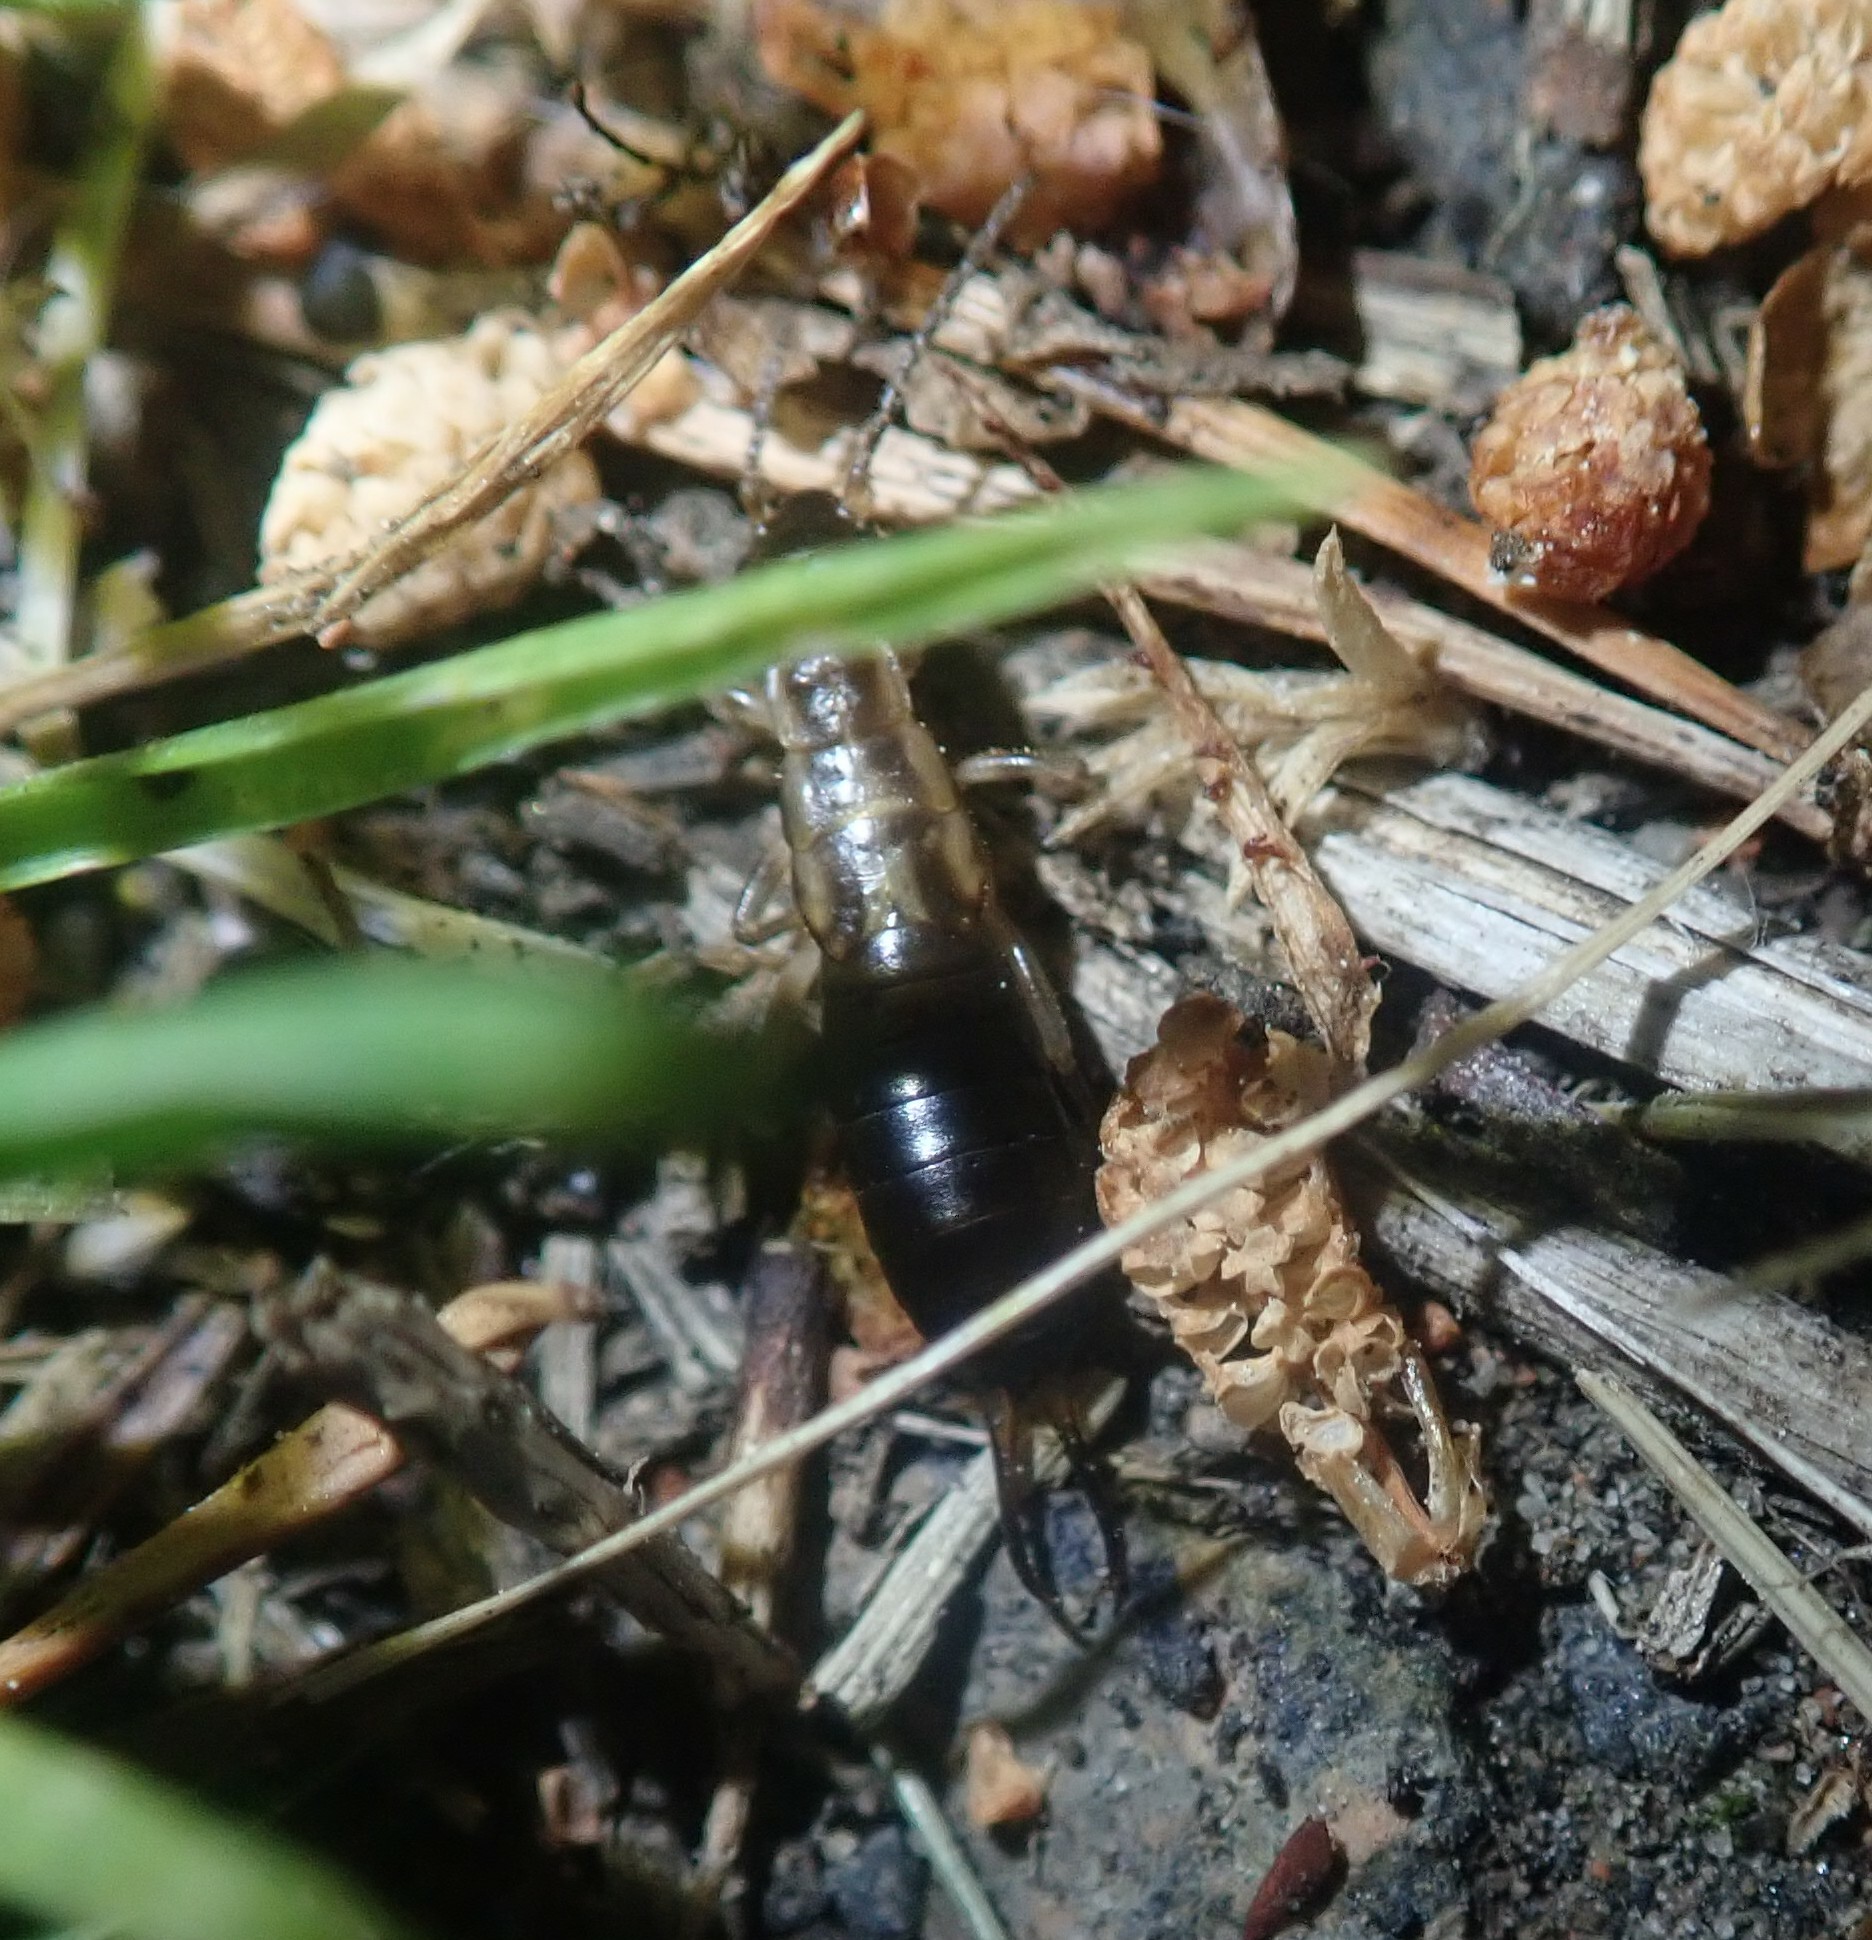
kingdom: Animalia
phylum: Arthropoda
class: Insecta
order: Dermaptera
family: Forficulidae
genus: Forficula
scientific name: Forficula
